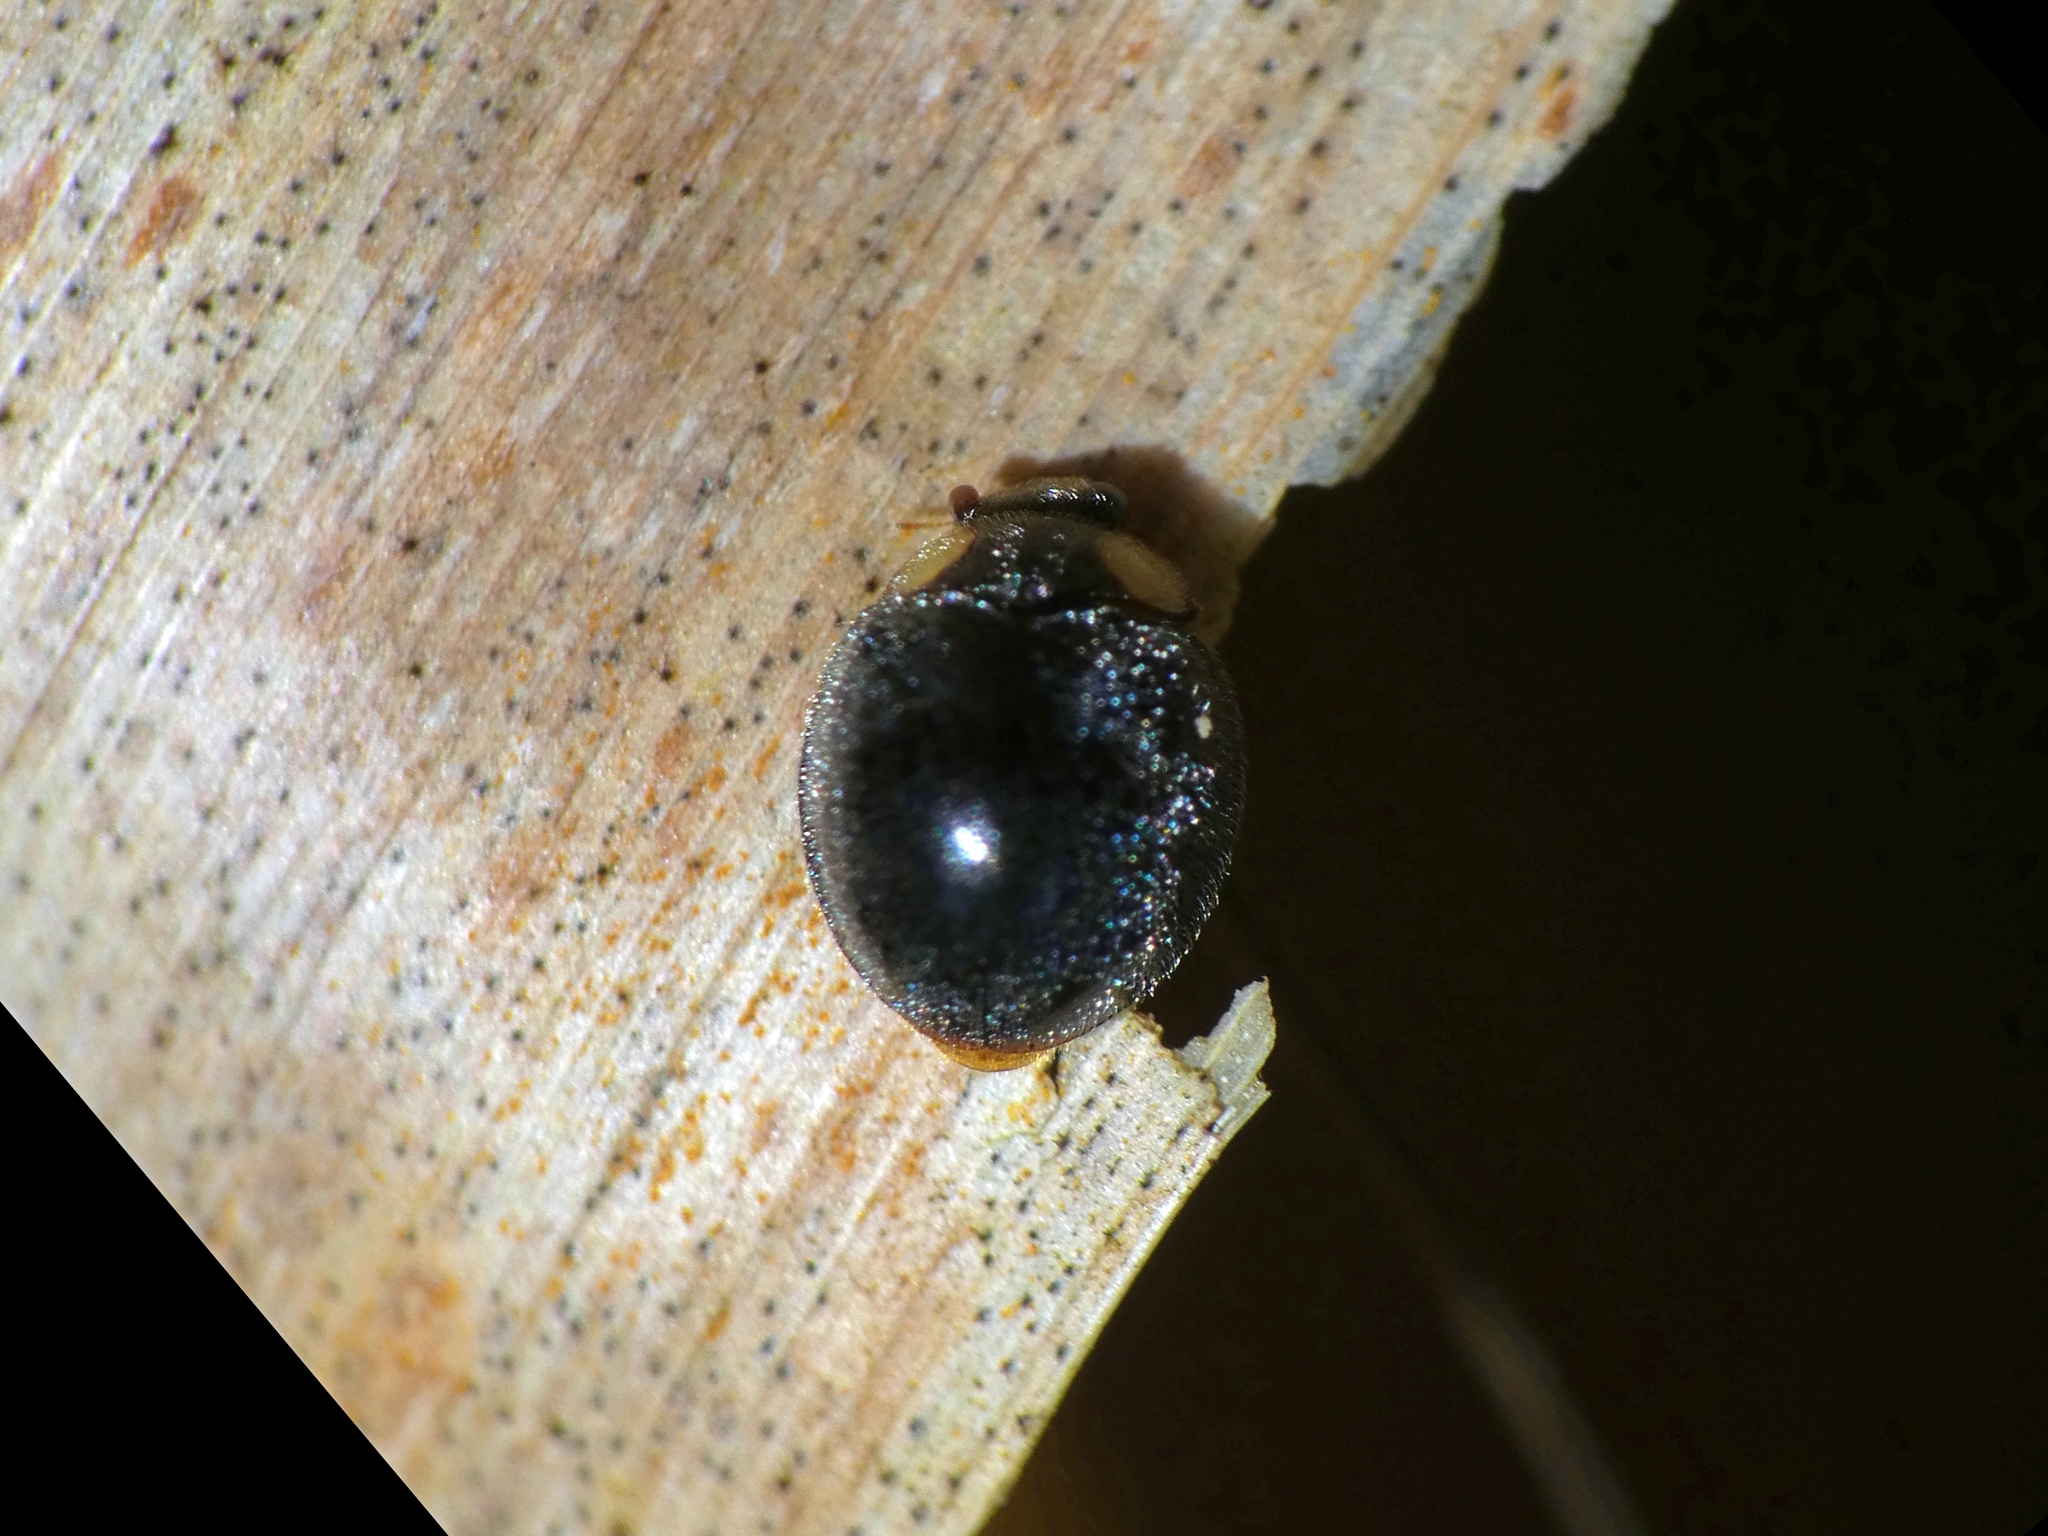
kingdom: Animalia
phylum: Arthropoda
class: Insecta
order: Coleoptera
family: Coccinellidae
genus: Scymnodes
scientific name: Scymnodes lividigaster
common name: Yellowshouldered lady beetle
